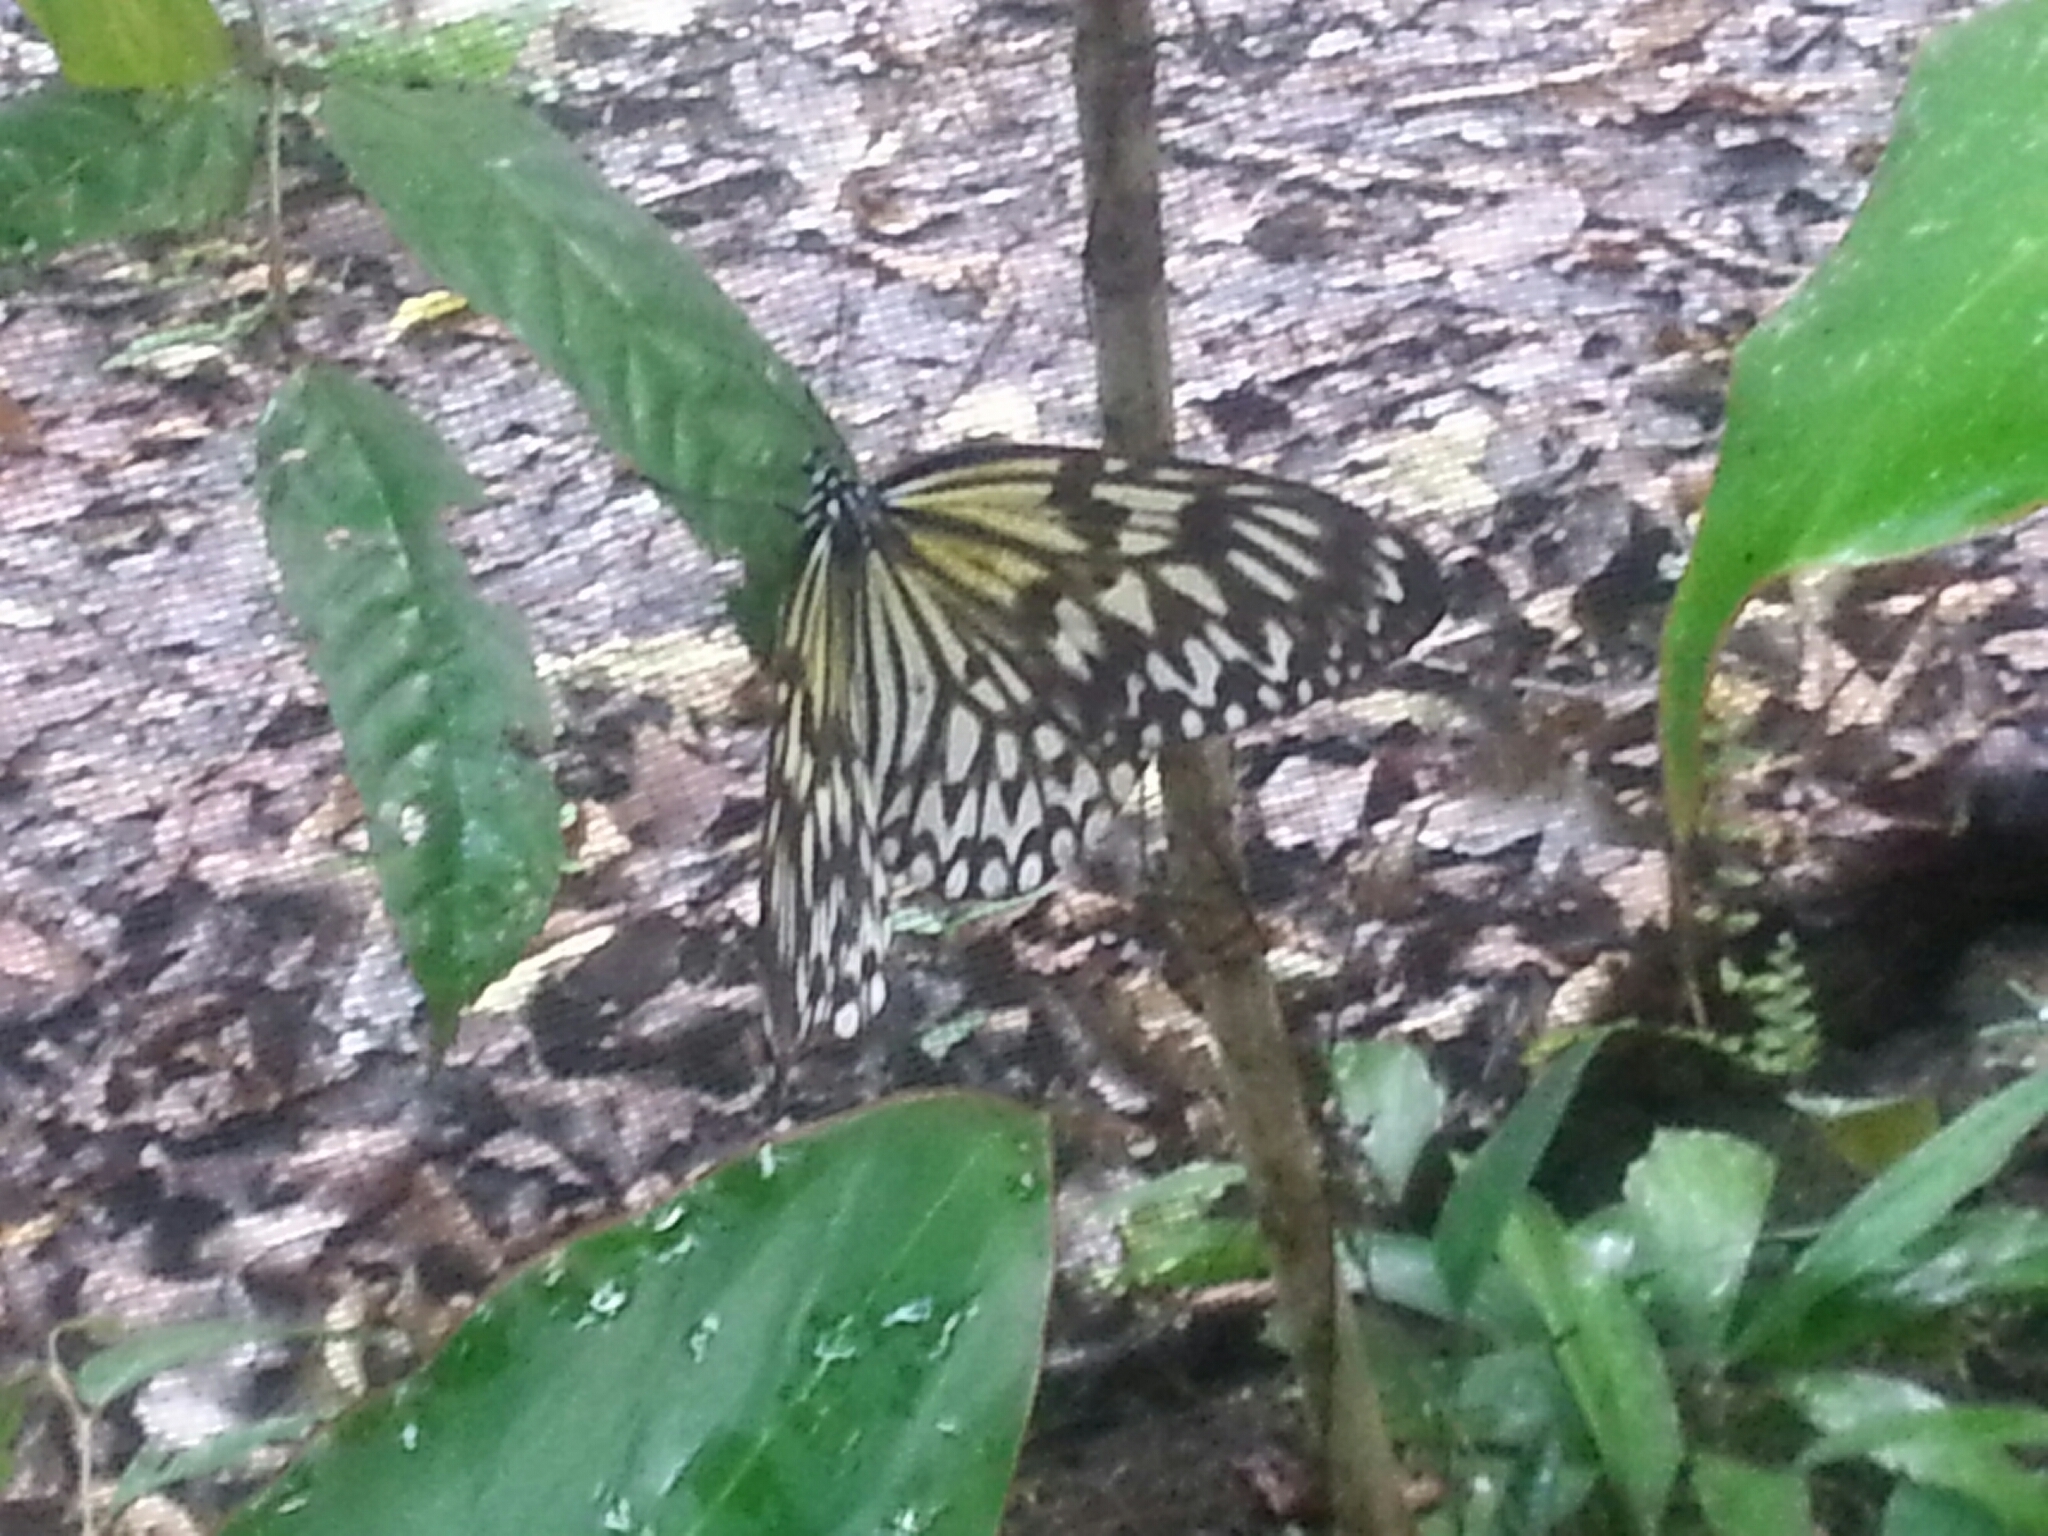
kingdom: Animalia
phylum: Arthropoda
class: Insecta
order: Lepidoptera
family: Nymphalidae
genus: Idea
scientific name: Idea leuconoe
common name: Rice paper butterfly
